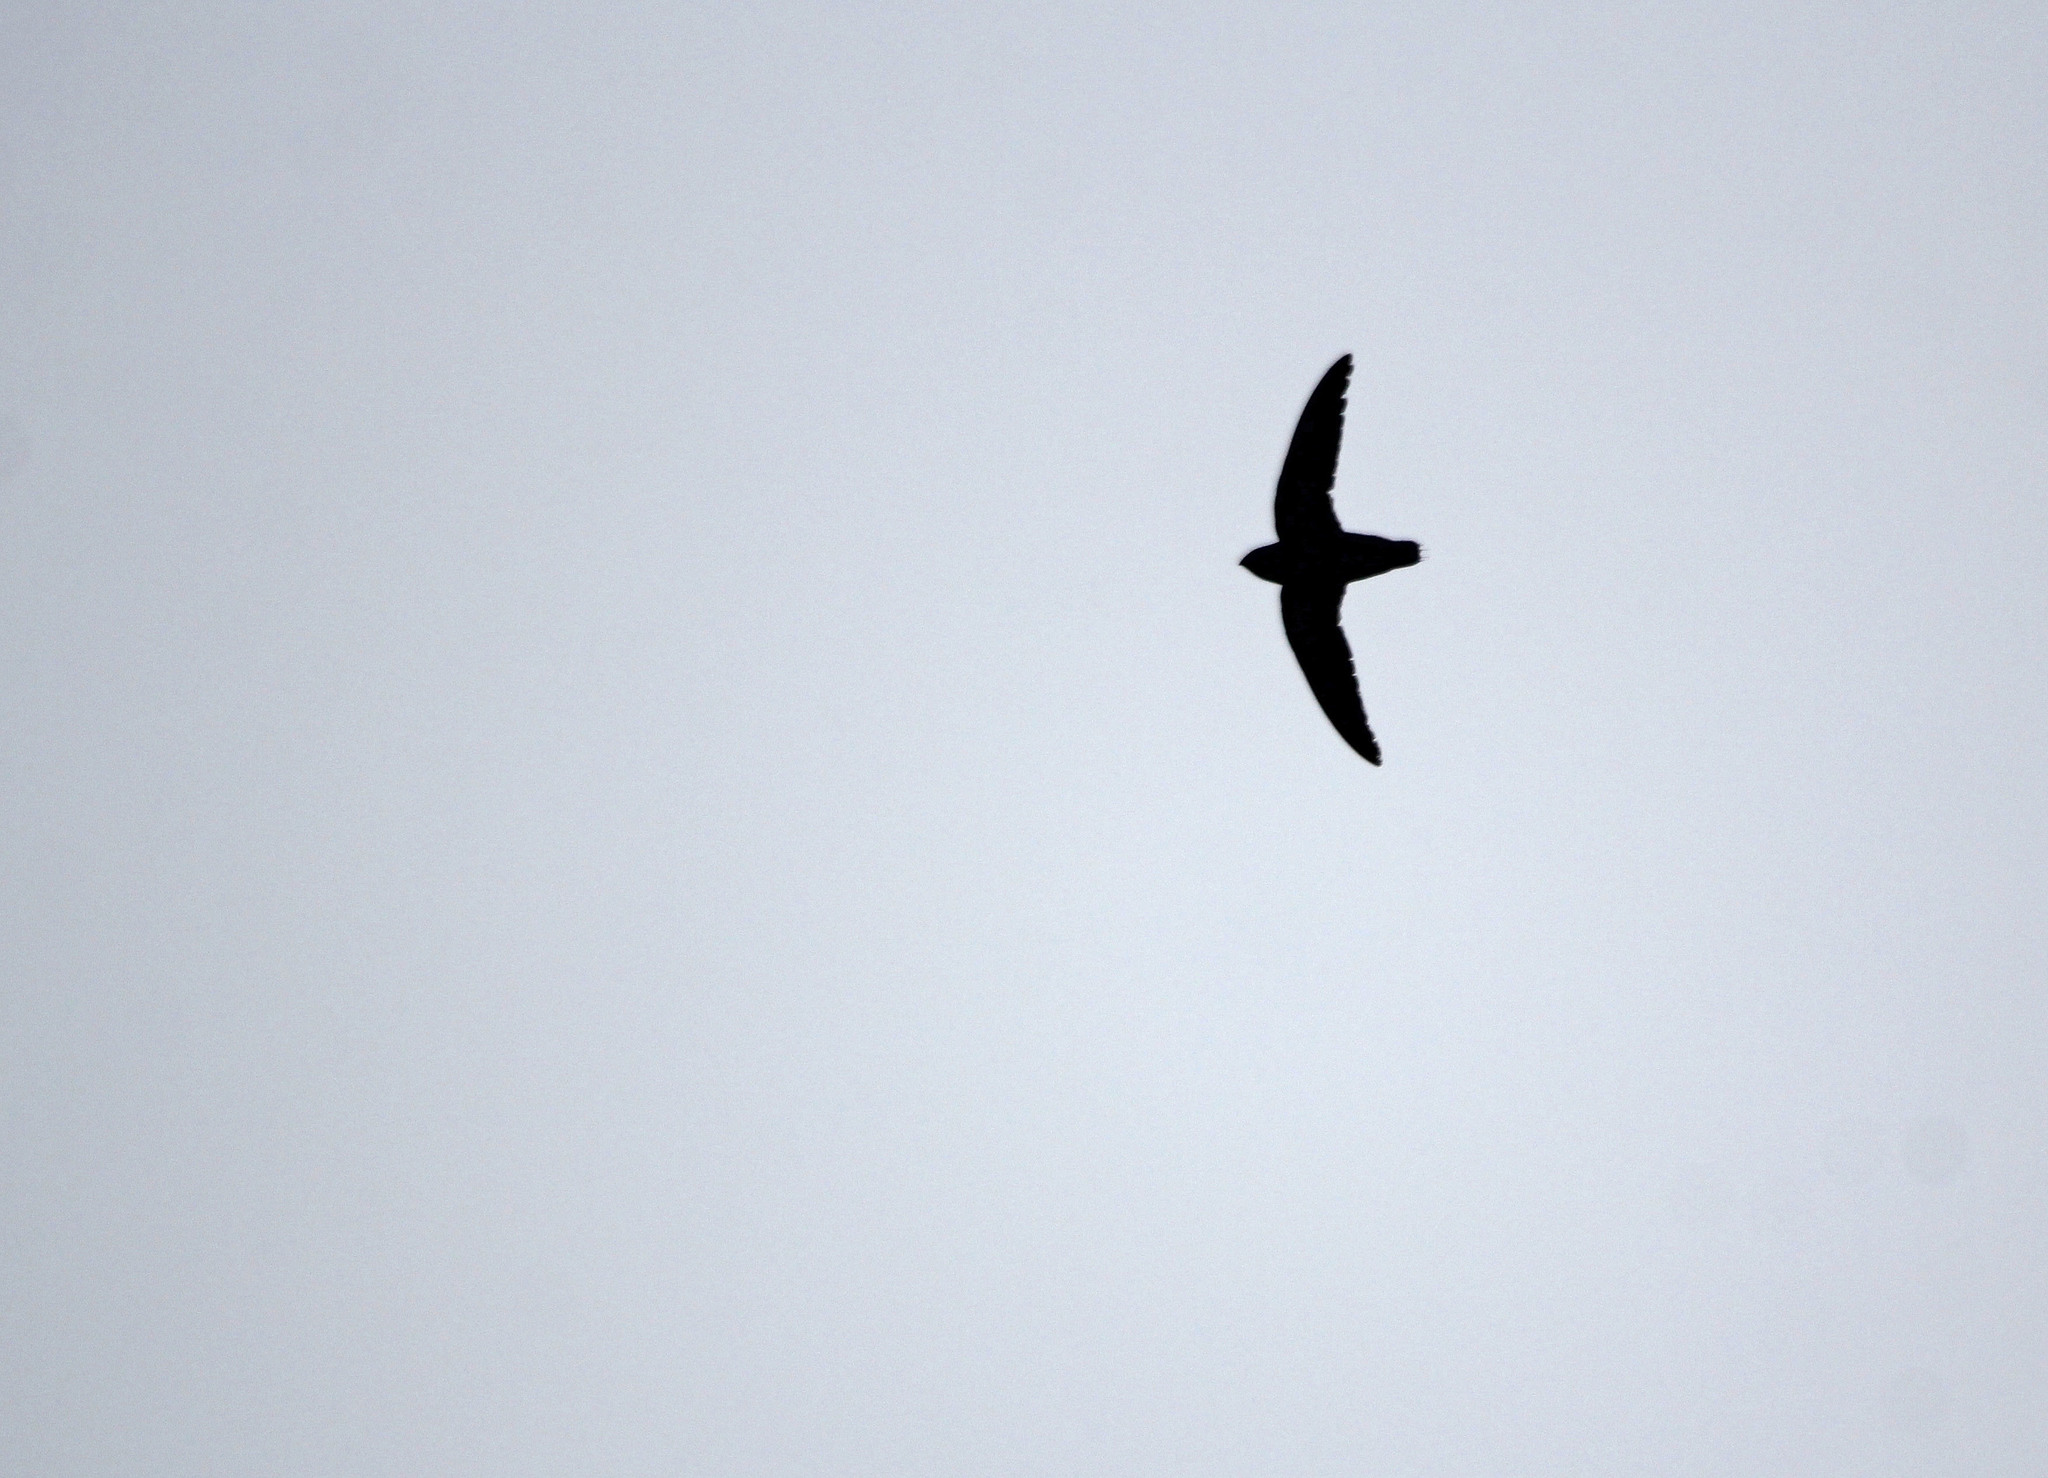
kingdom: Animalia
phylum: Chordata
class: Aves
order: Apodiformes
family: Apodidae
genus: Chaetura
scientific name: Chaetura pelagica
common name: Chimney swift
